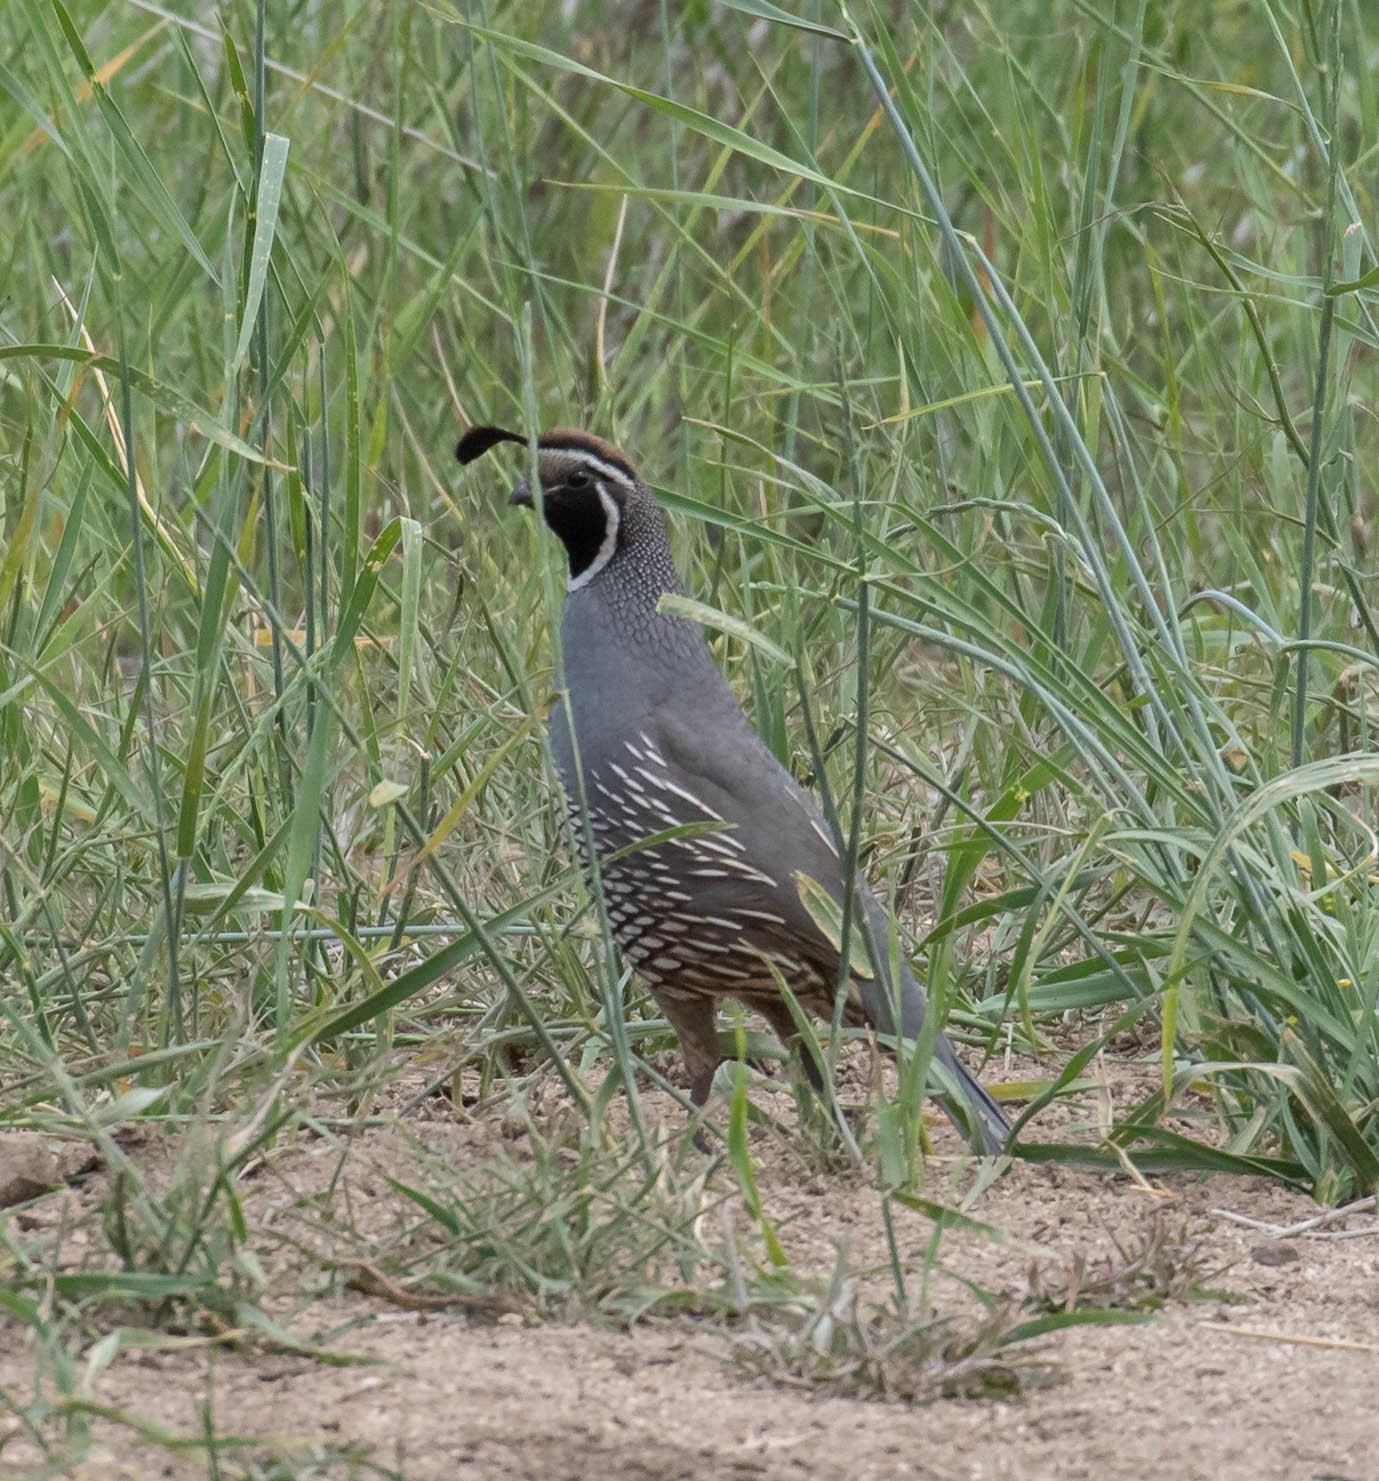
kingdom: Animalia
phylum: Chordata
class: Aves
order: Galliformes
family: Odontophoridae
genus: Callipepla
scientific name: Callipepla californica
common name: California quail
